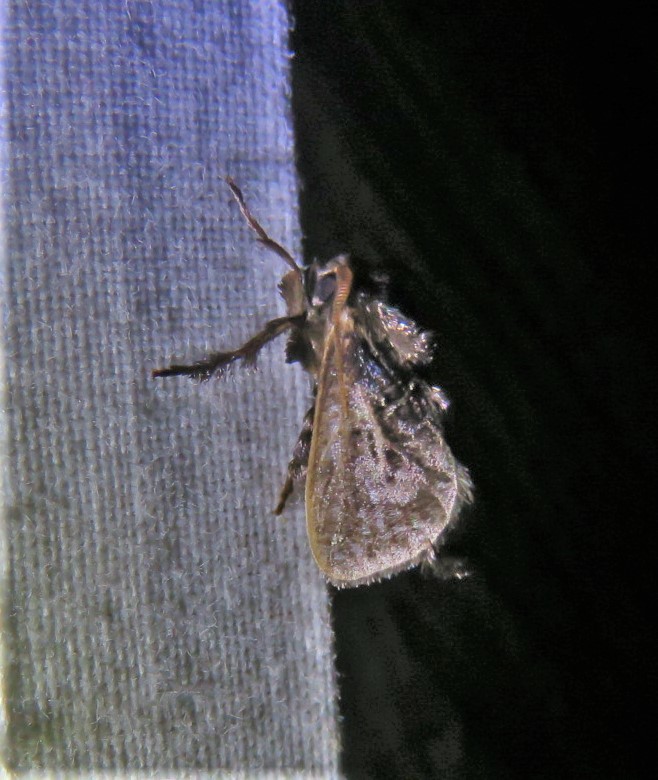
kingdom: Animalia
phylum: Arthropoda
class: Insecta
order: Lepidoptera
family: Limacodidae
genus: Euclea
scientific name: Euclea costaricana
